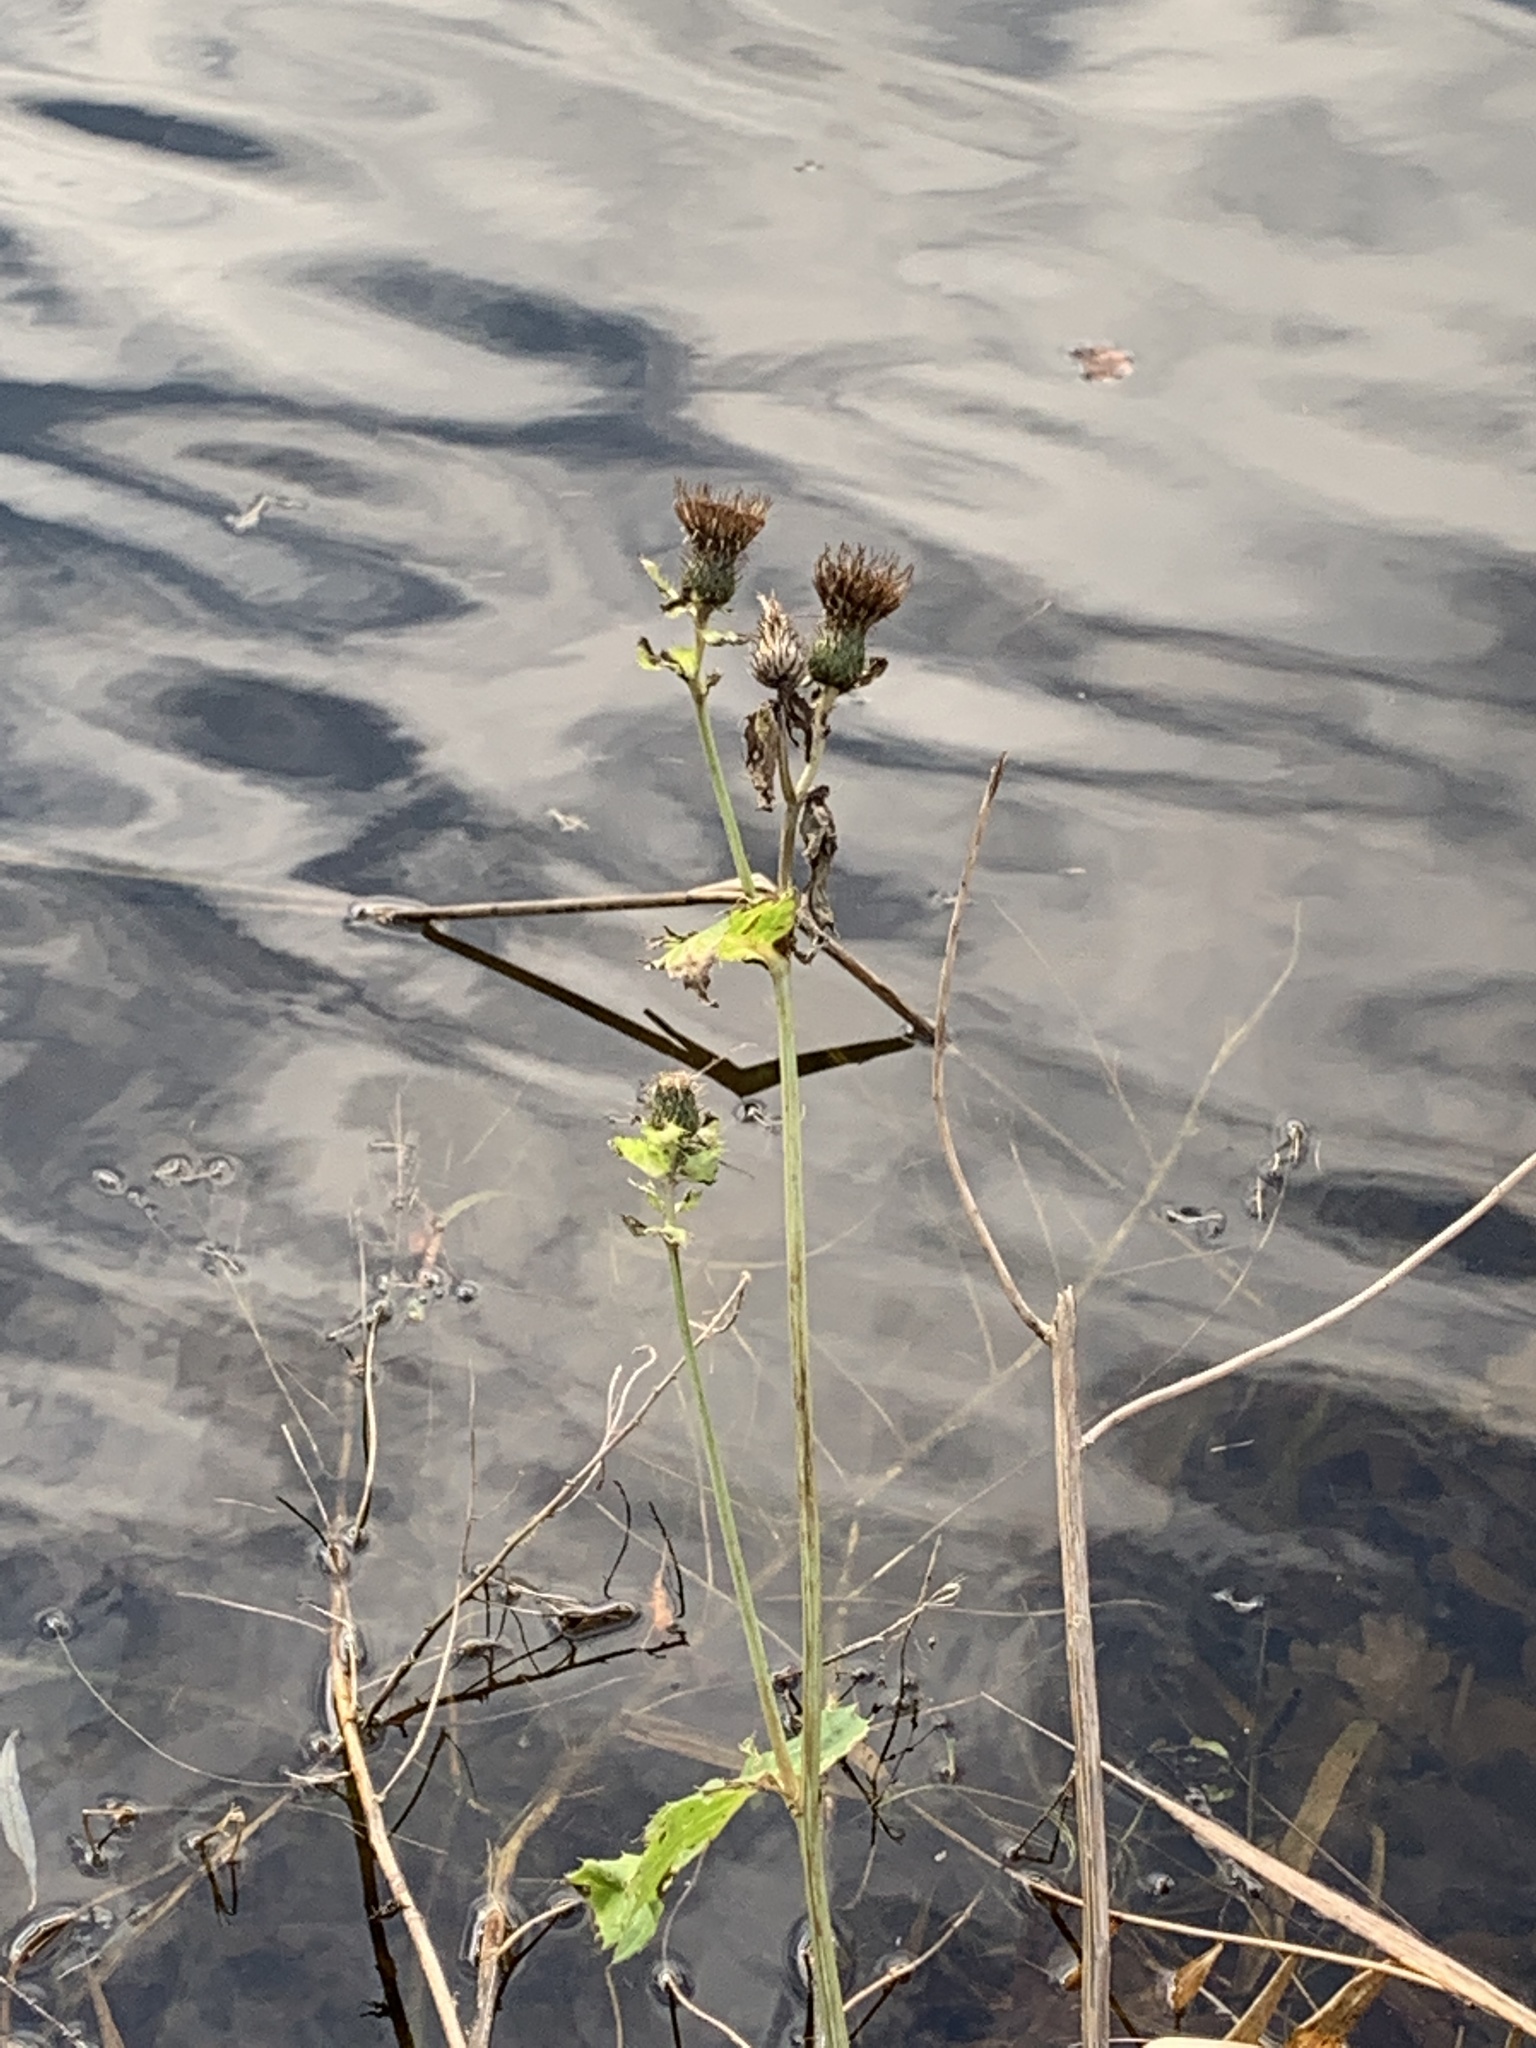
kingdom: Plantae
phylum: Tracheophyta
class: Magnoliopsida
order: Asterales
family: Asteraceae
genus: Cirsium
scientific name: Cirsium oleraceum
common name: Cabbage thistle
